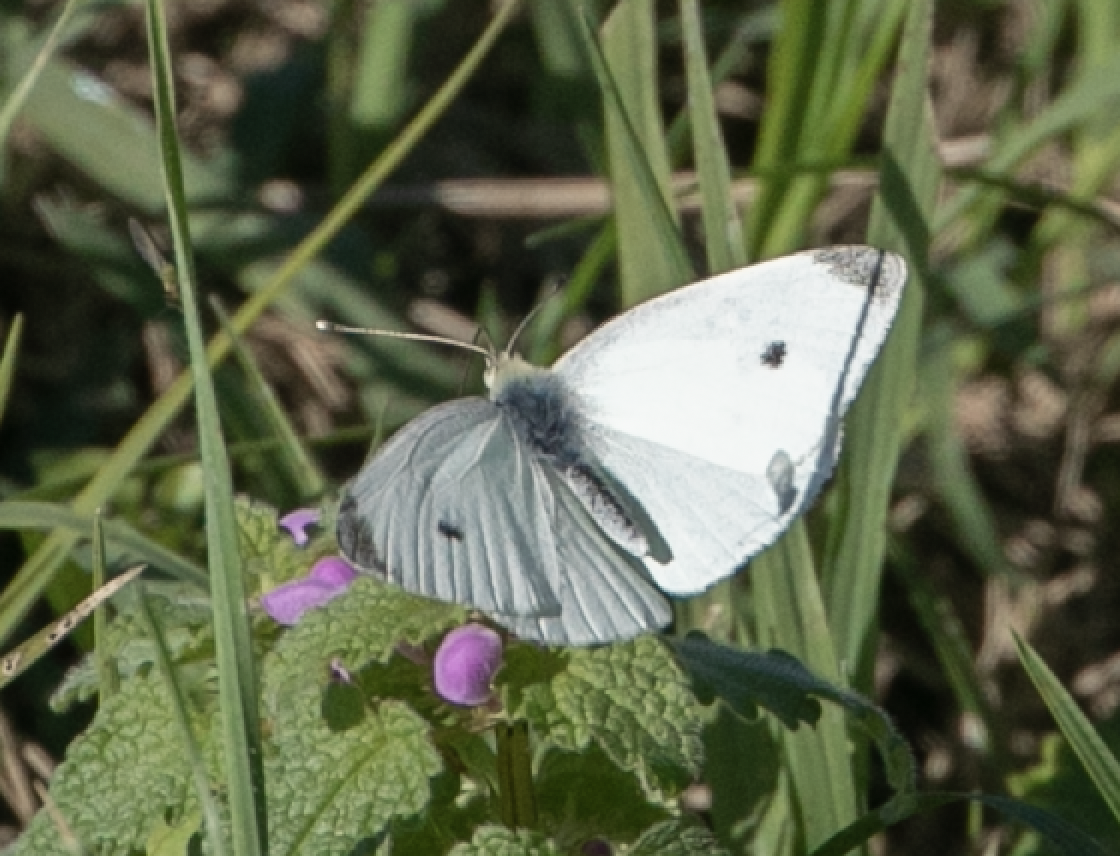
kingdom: Animalia
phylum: Arthropoda
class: Insecta
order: Lepidoptera
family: Pieridae
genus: Pieris
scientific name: Pieris rapae
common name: Small white
